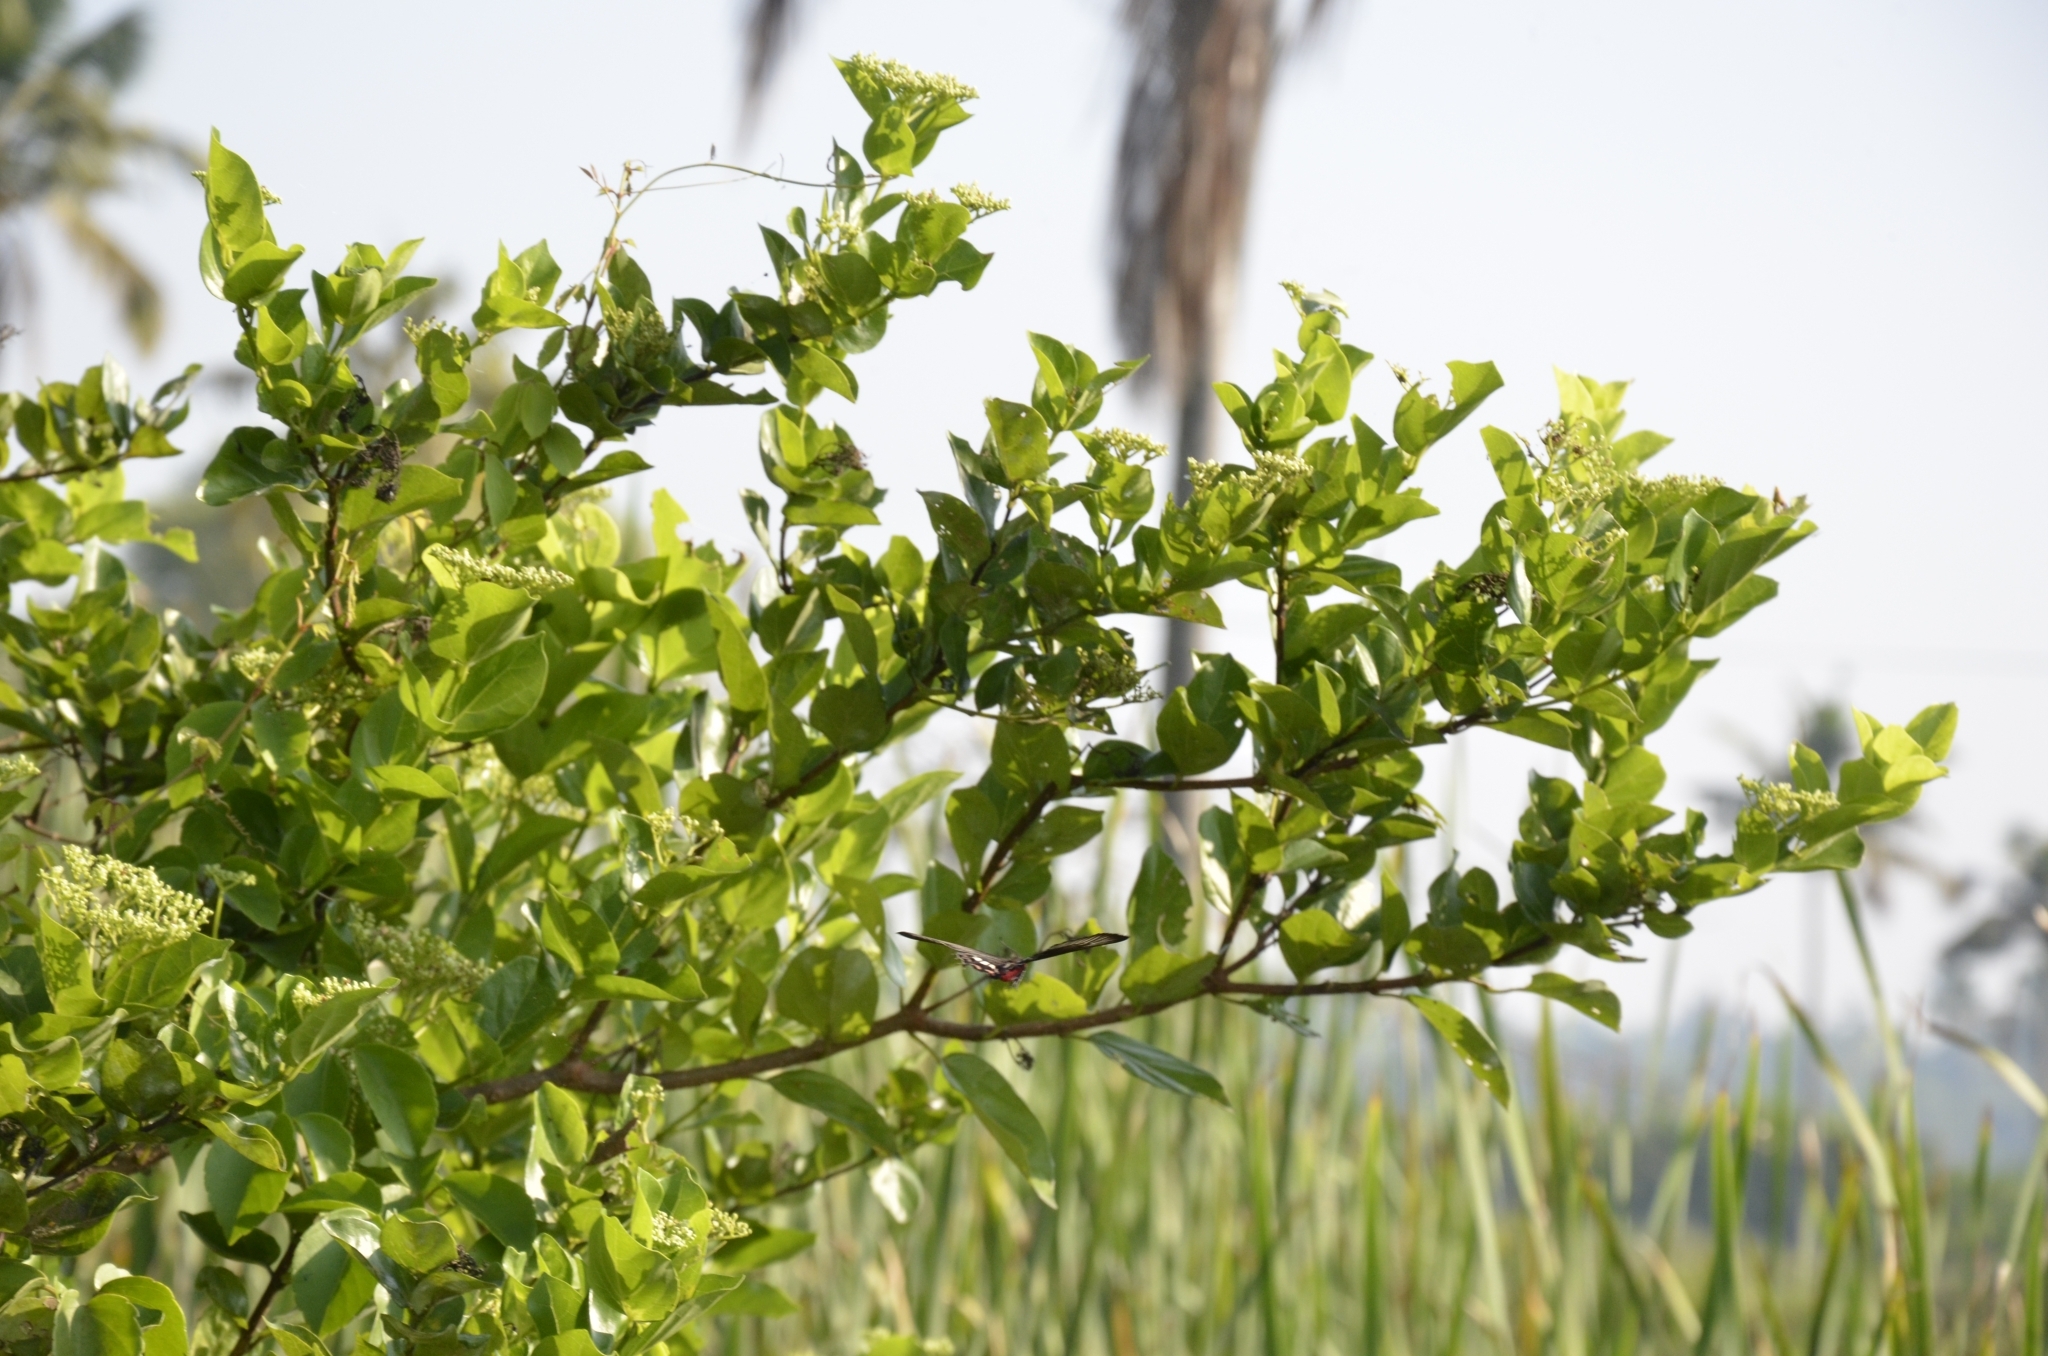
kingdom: Plantae
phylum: Tracheophyta
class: Magnoliopsida
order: Lamiales
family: Lamiaceae
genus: Premna
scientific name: Premna serratifolia
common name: Bastard guelder
